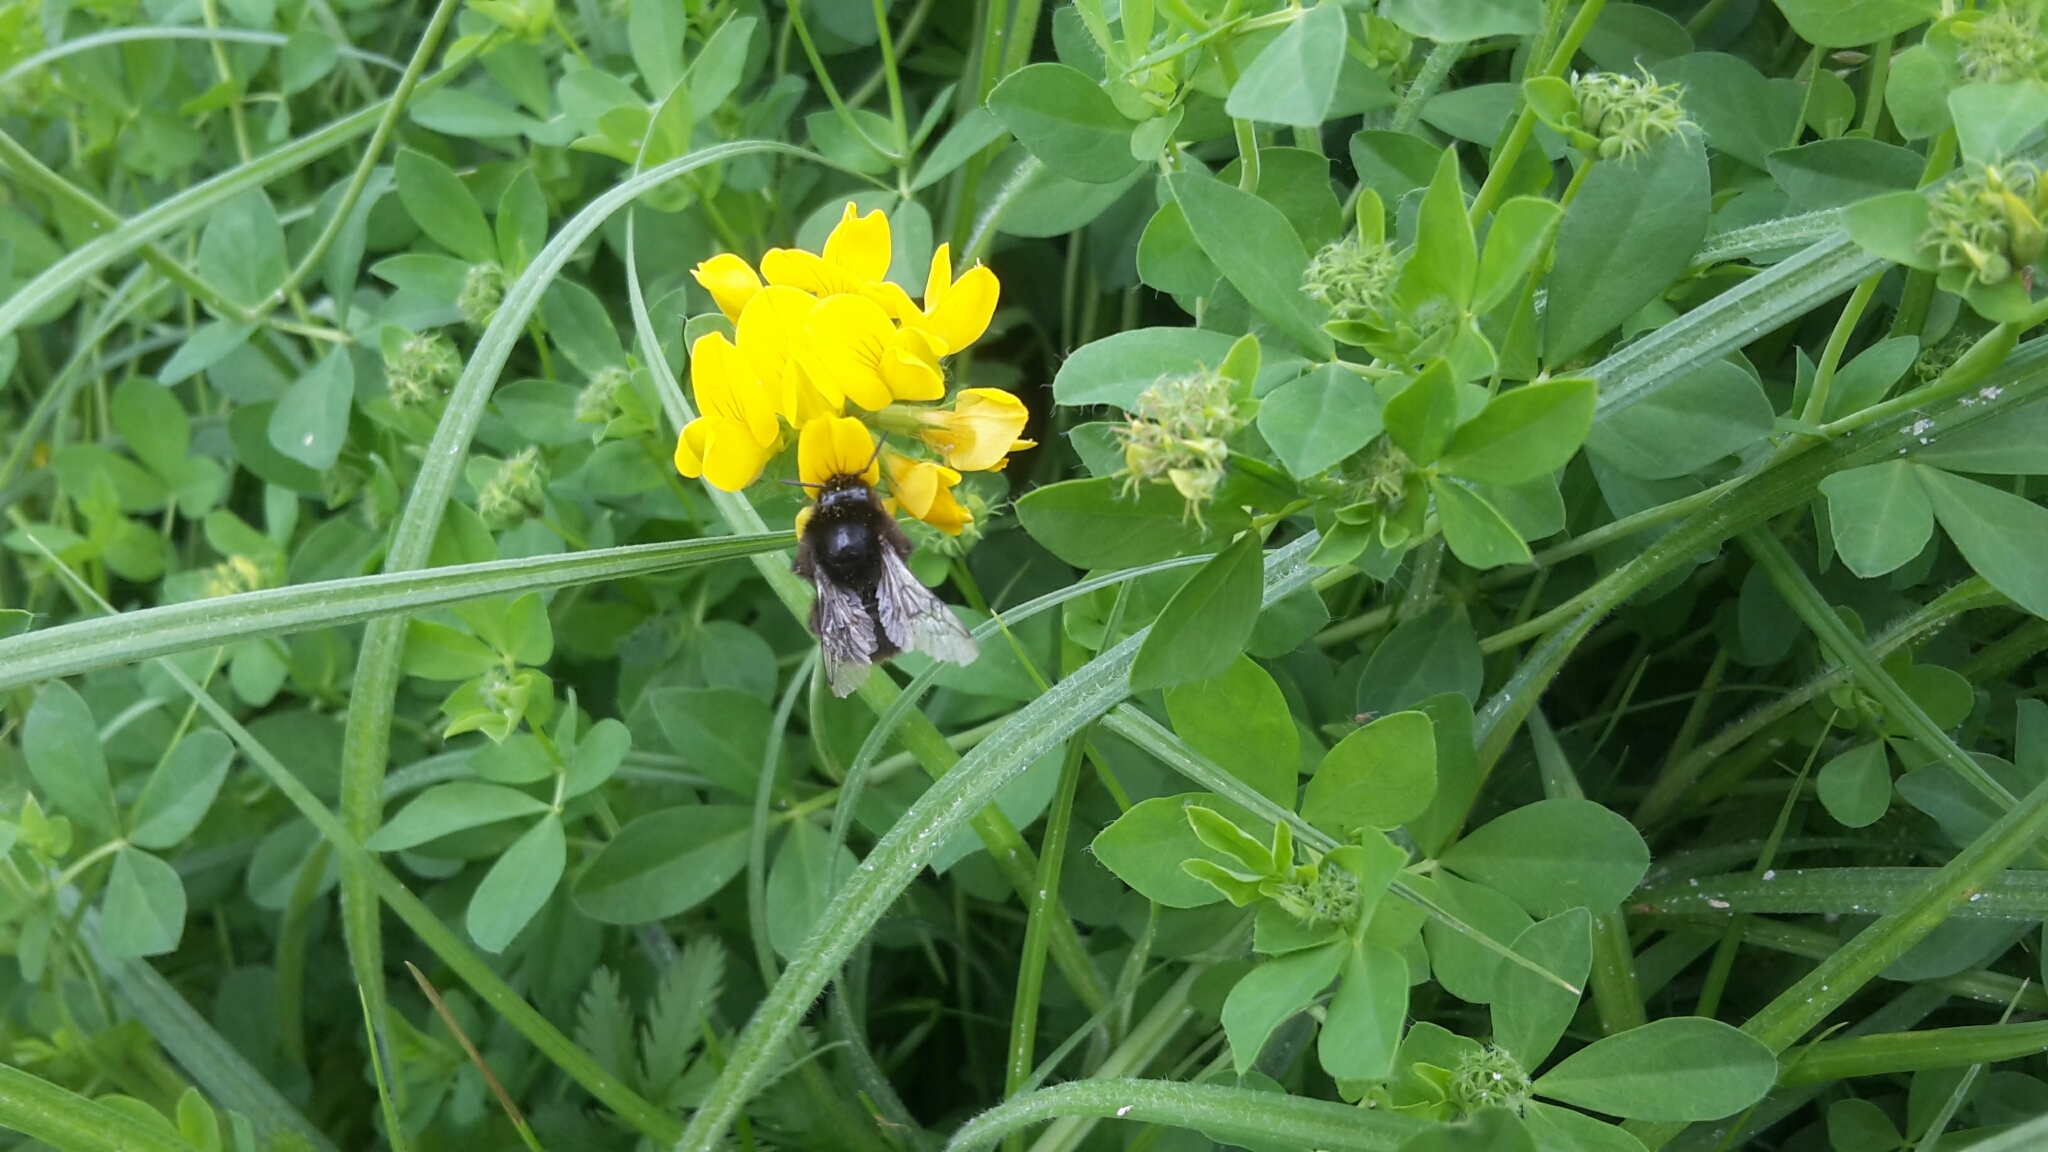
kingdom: Animalia
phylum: Arthropoda
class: Insecta
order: Hymenoptera
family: Apidae
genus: Bombus
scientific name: Bombus lapidarius
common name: Large red-tailed humble-bee
